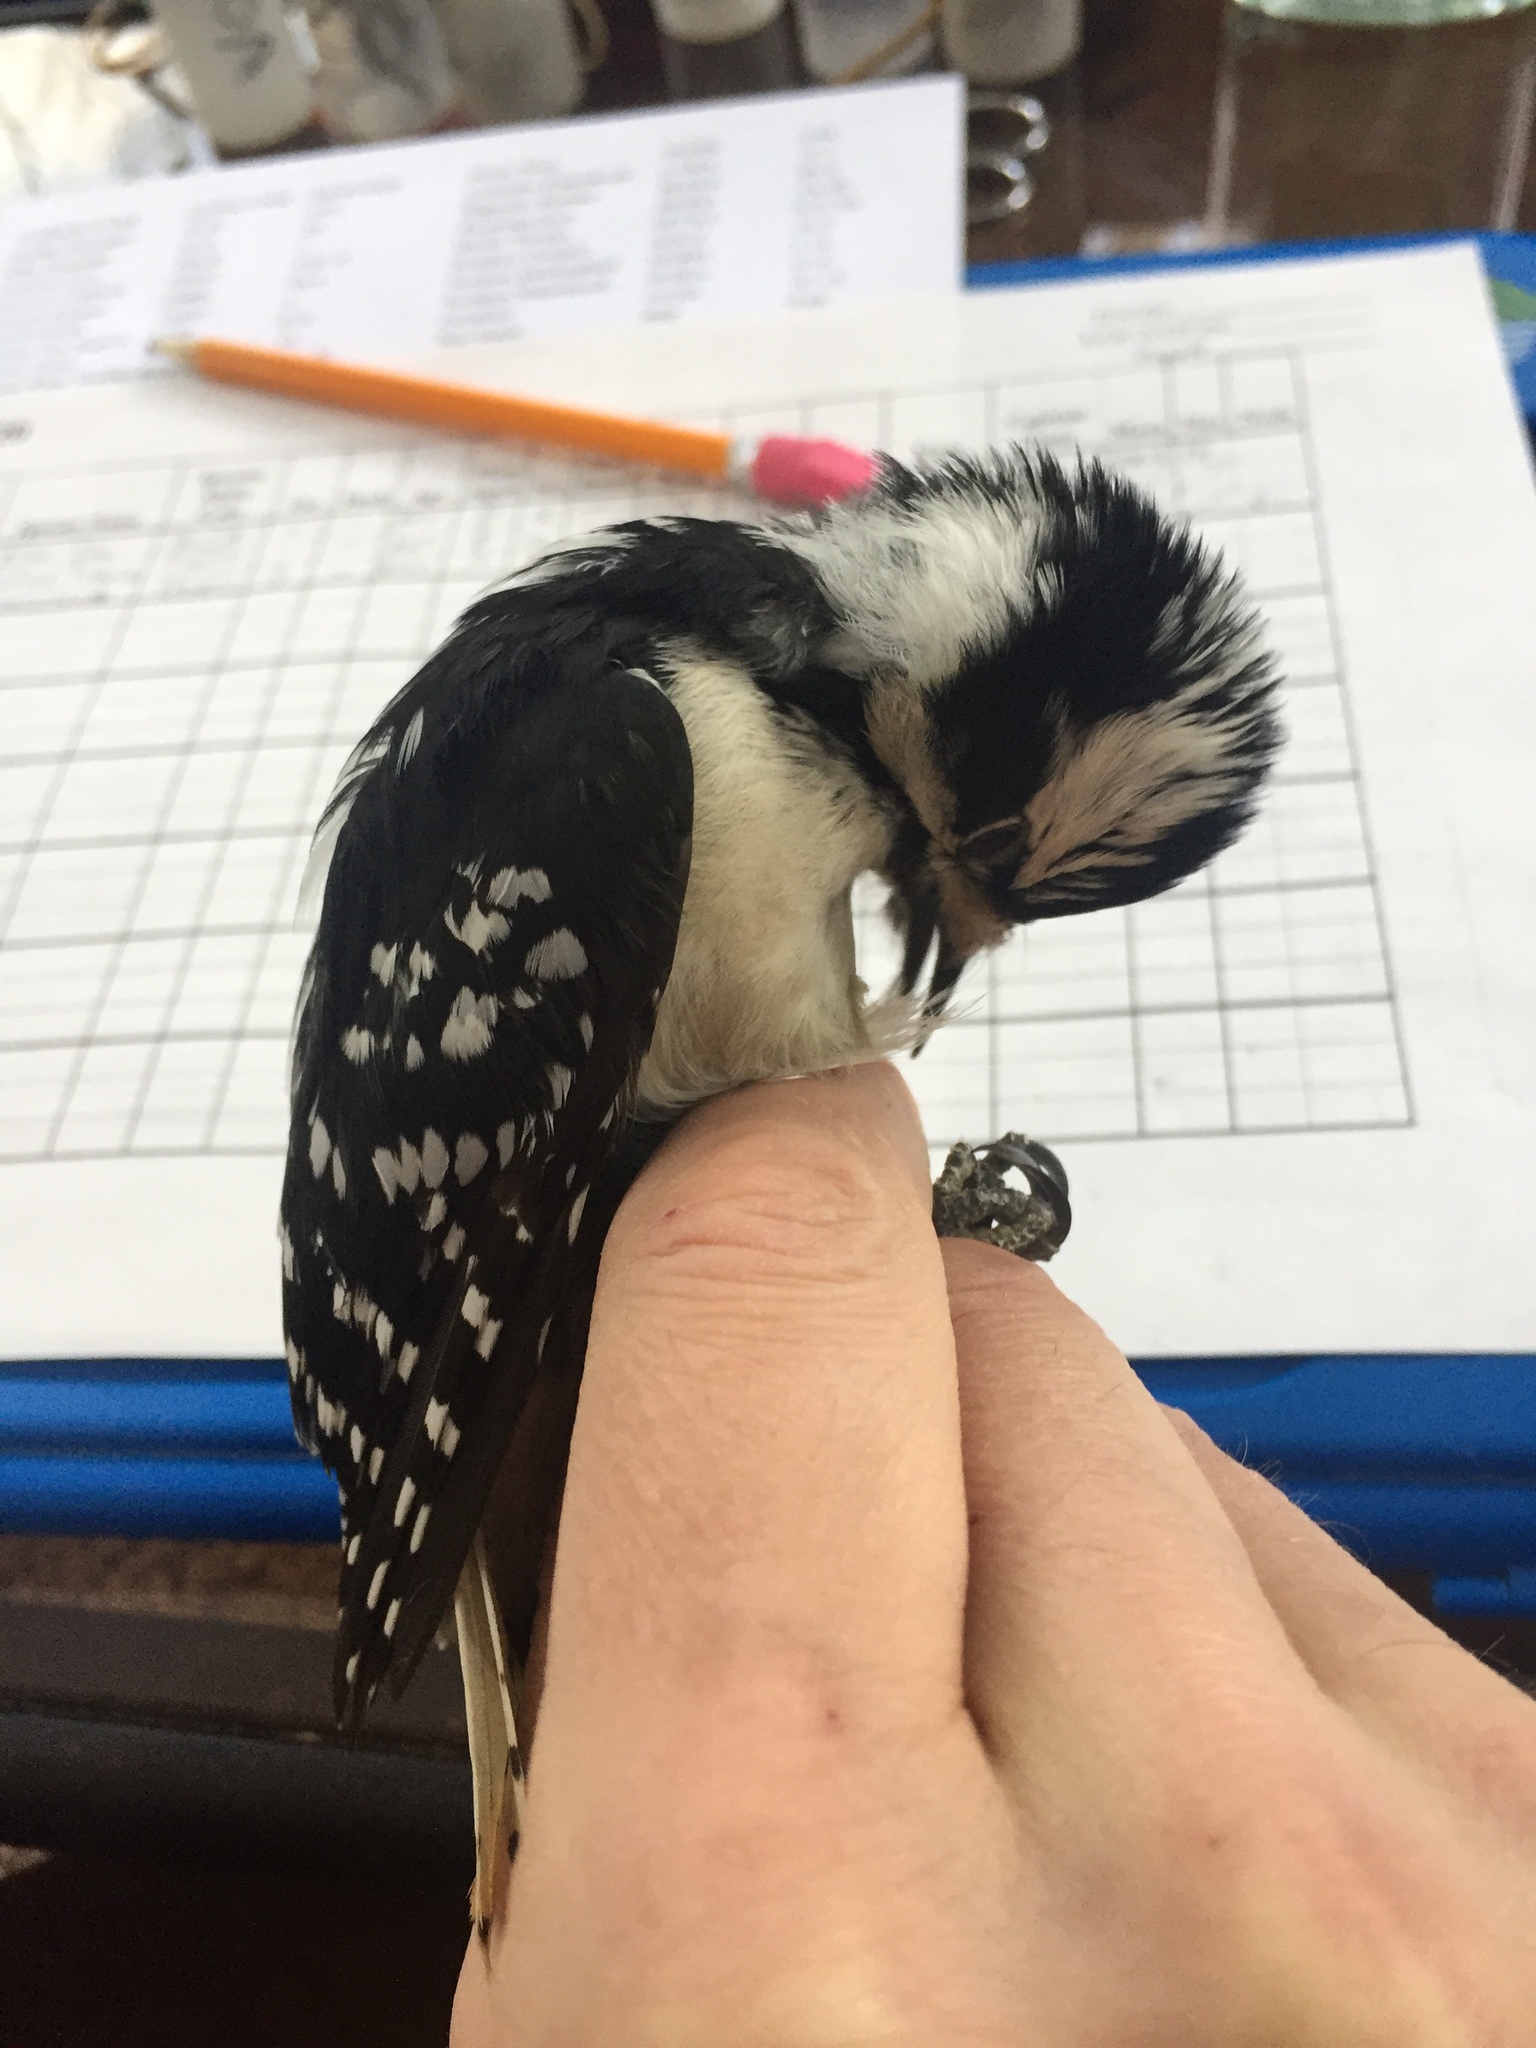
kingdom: Animalia
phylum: Chordata
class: Aves
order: Piciformes
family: Picidae
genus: Dryobates
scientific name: Dryobates pubescens
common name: Downy woodpecker
